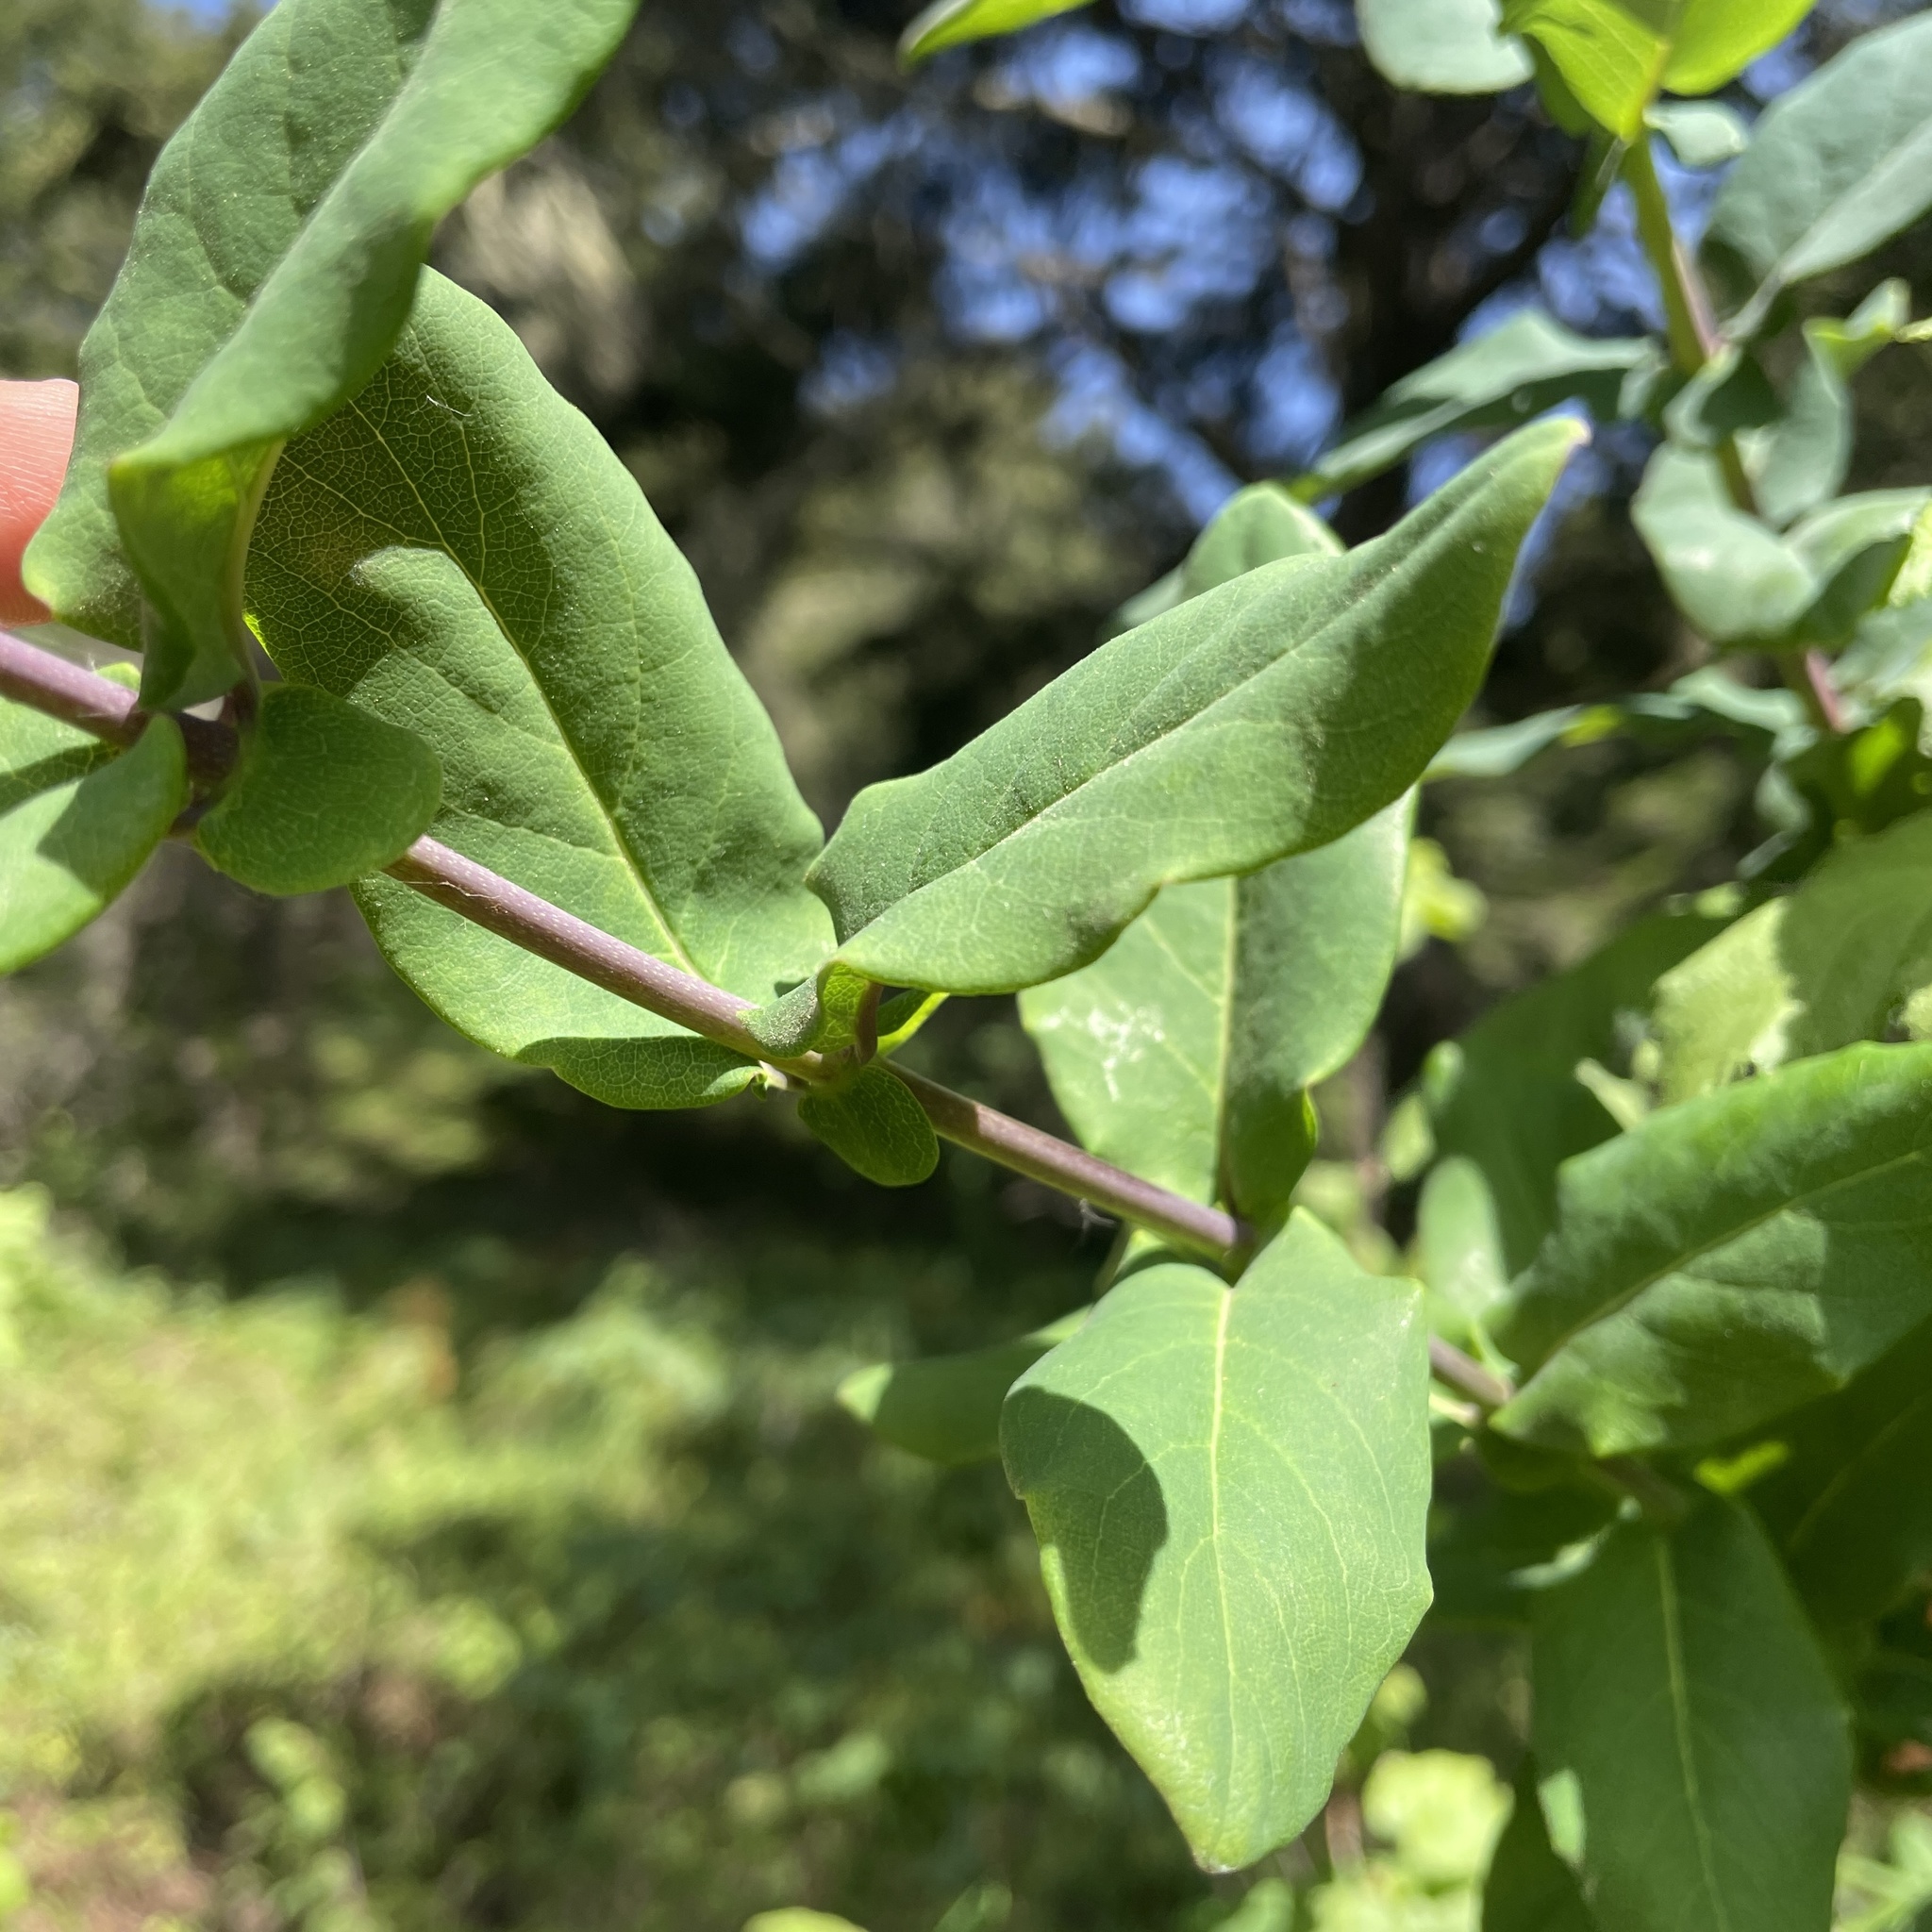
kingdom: Plantae
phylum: Tracheophyta
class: Magnoliopsida
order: Dipsacales
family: Caprifoliaceae
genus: Lonicera
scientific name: Lonicera hispidula
